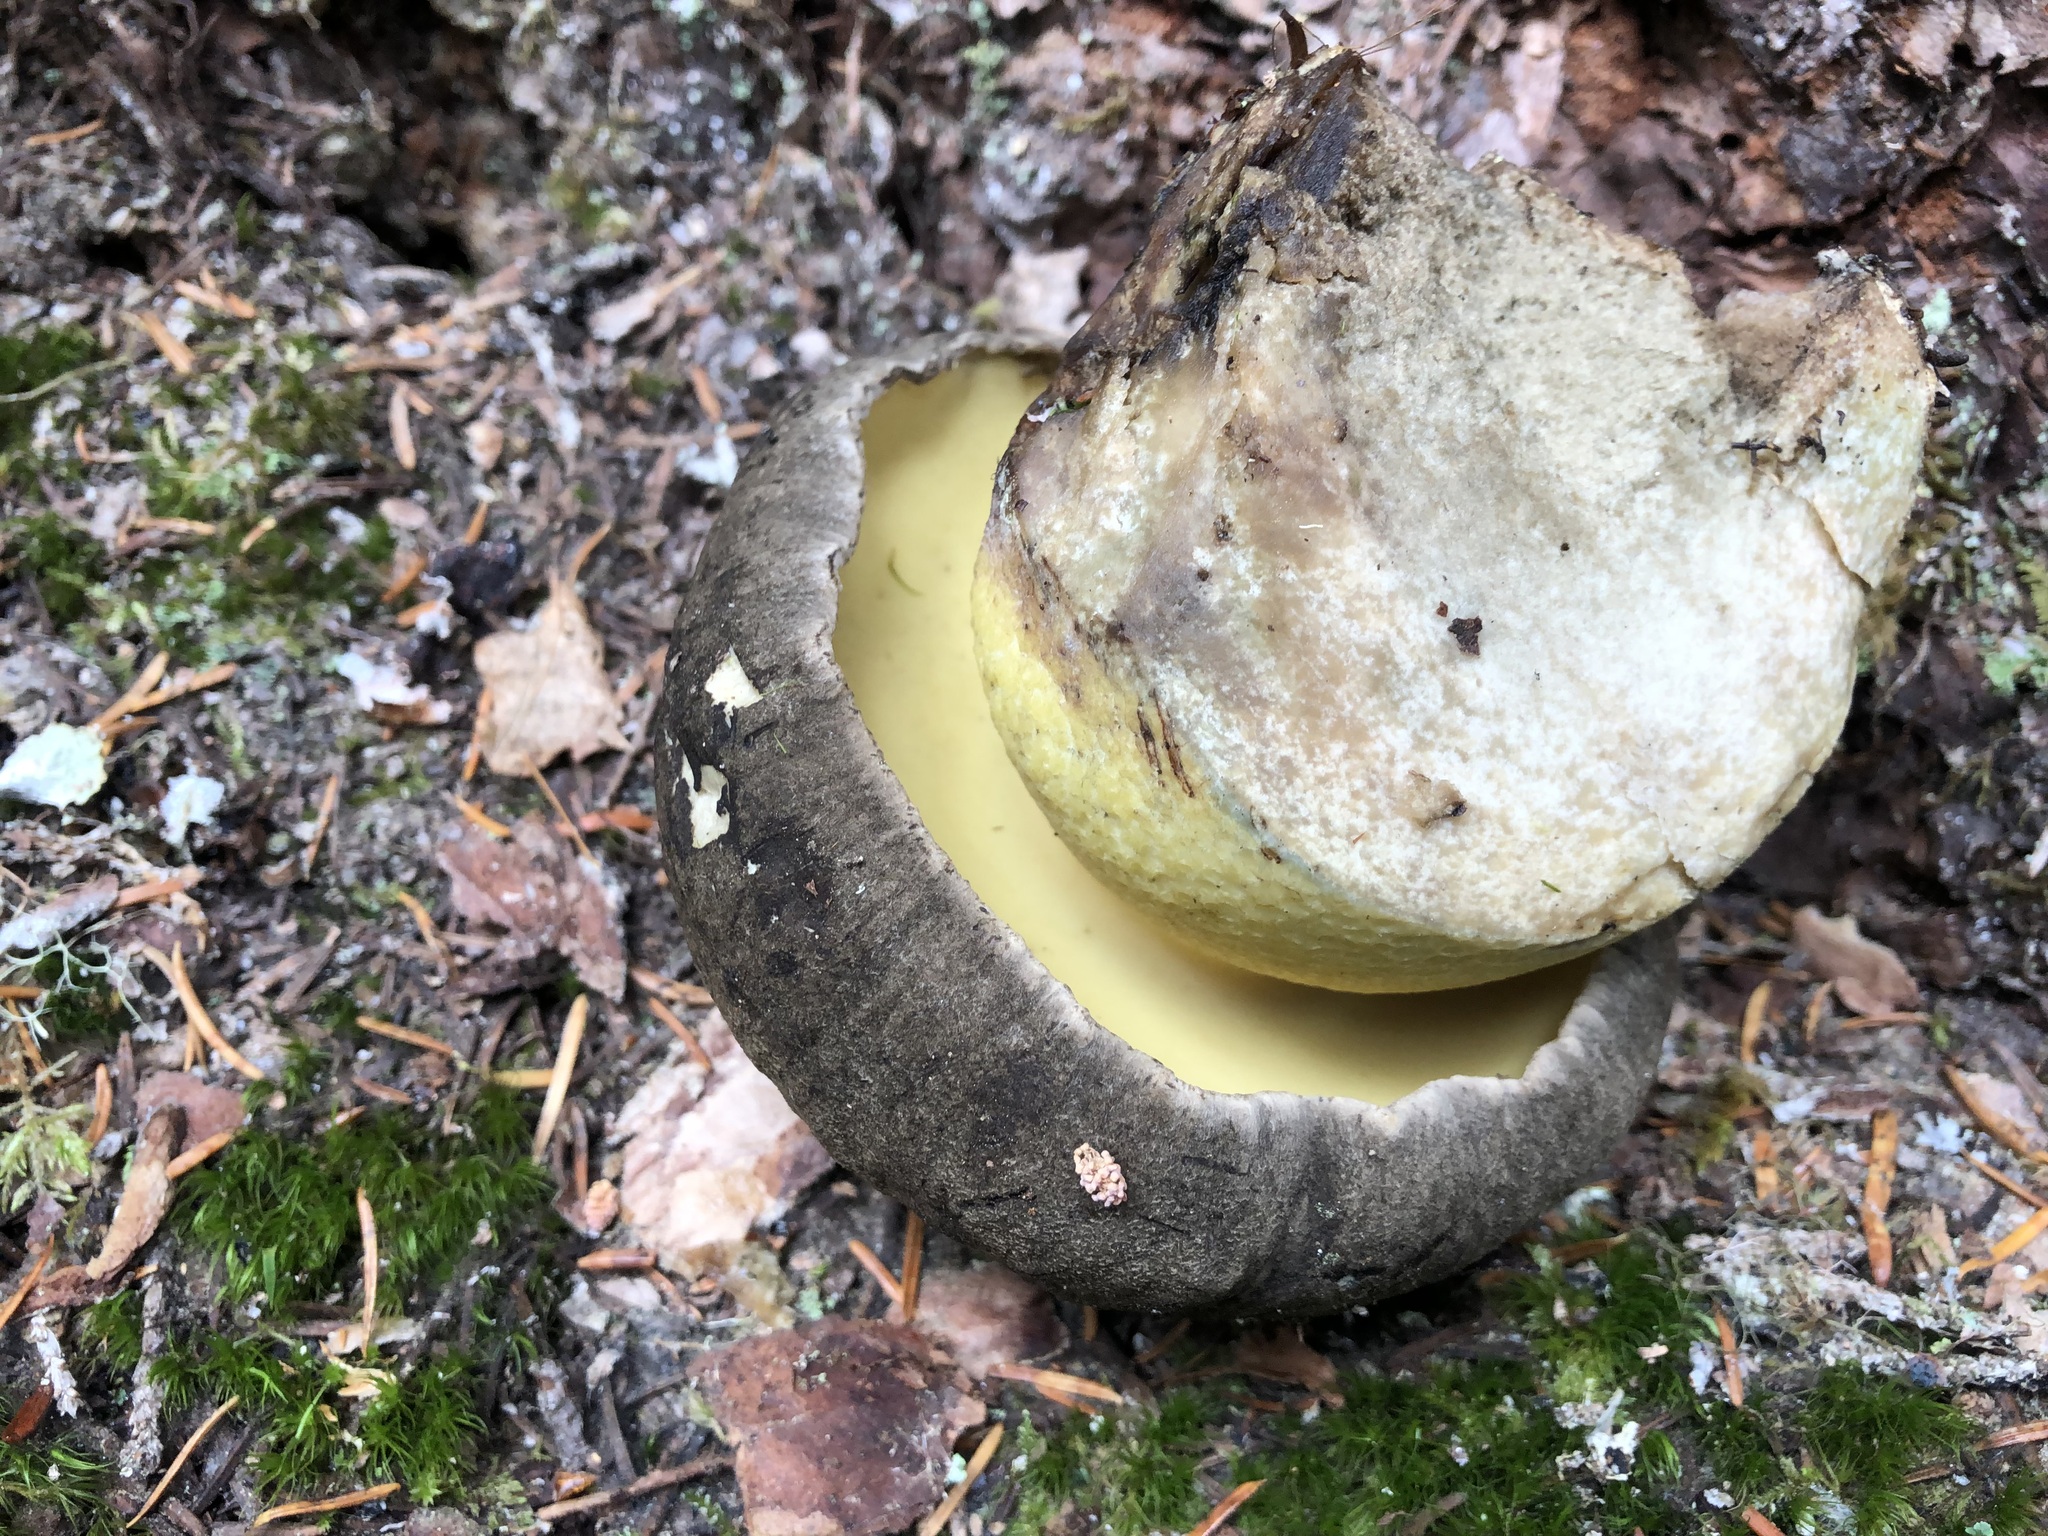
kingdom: Fungi
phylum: Basidiomycota
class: Agaricomycetes
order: Boletales
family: Boletaceae
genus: Caloboletus
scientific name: Caloboletus conifericola
